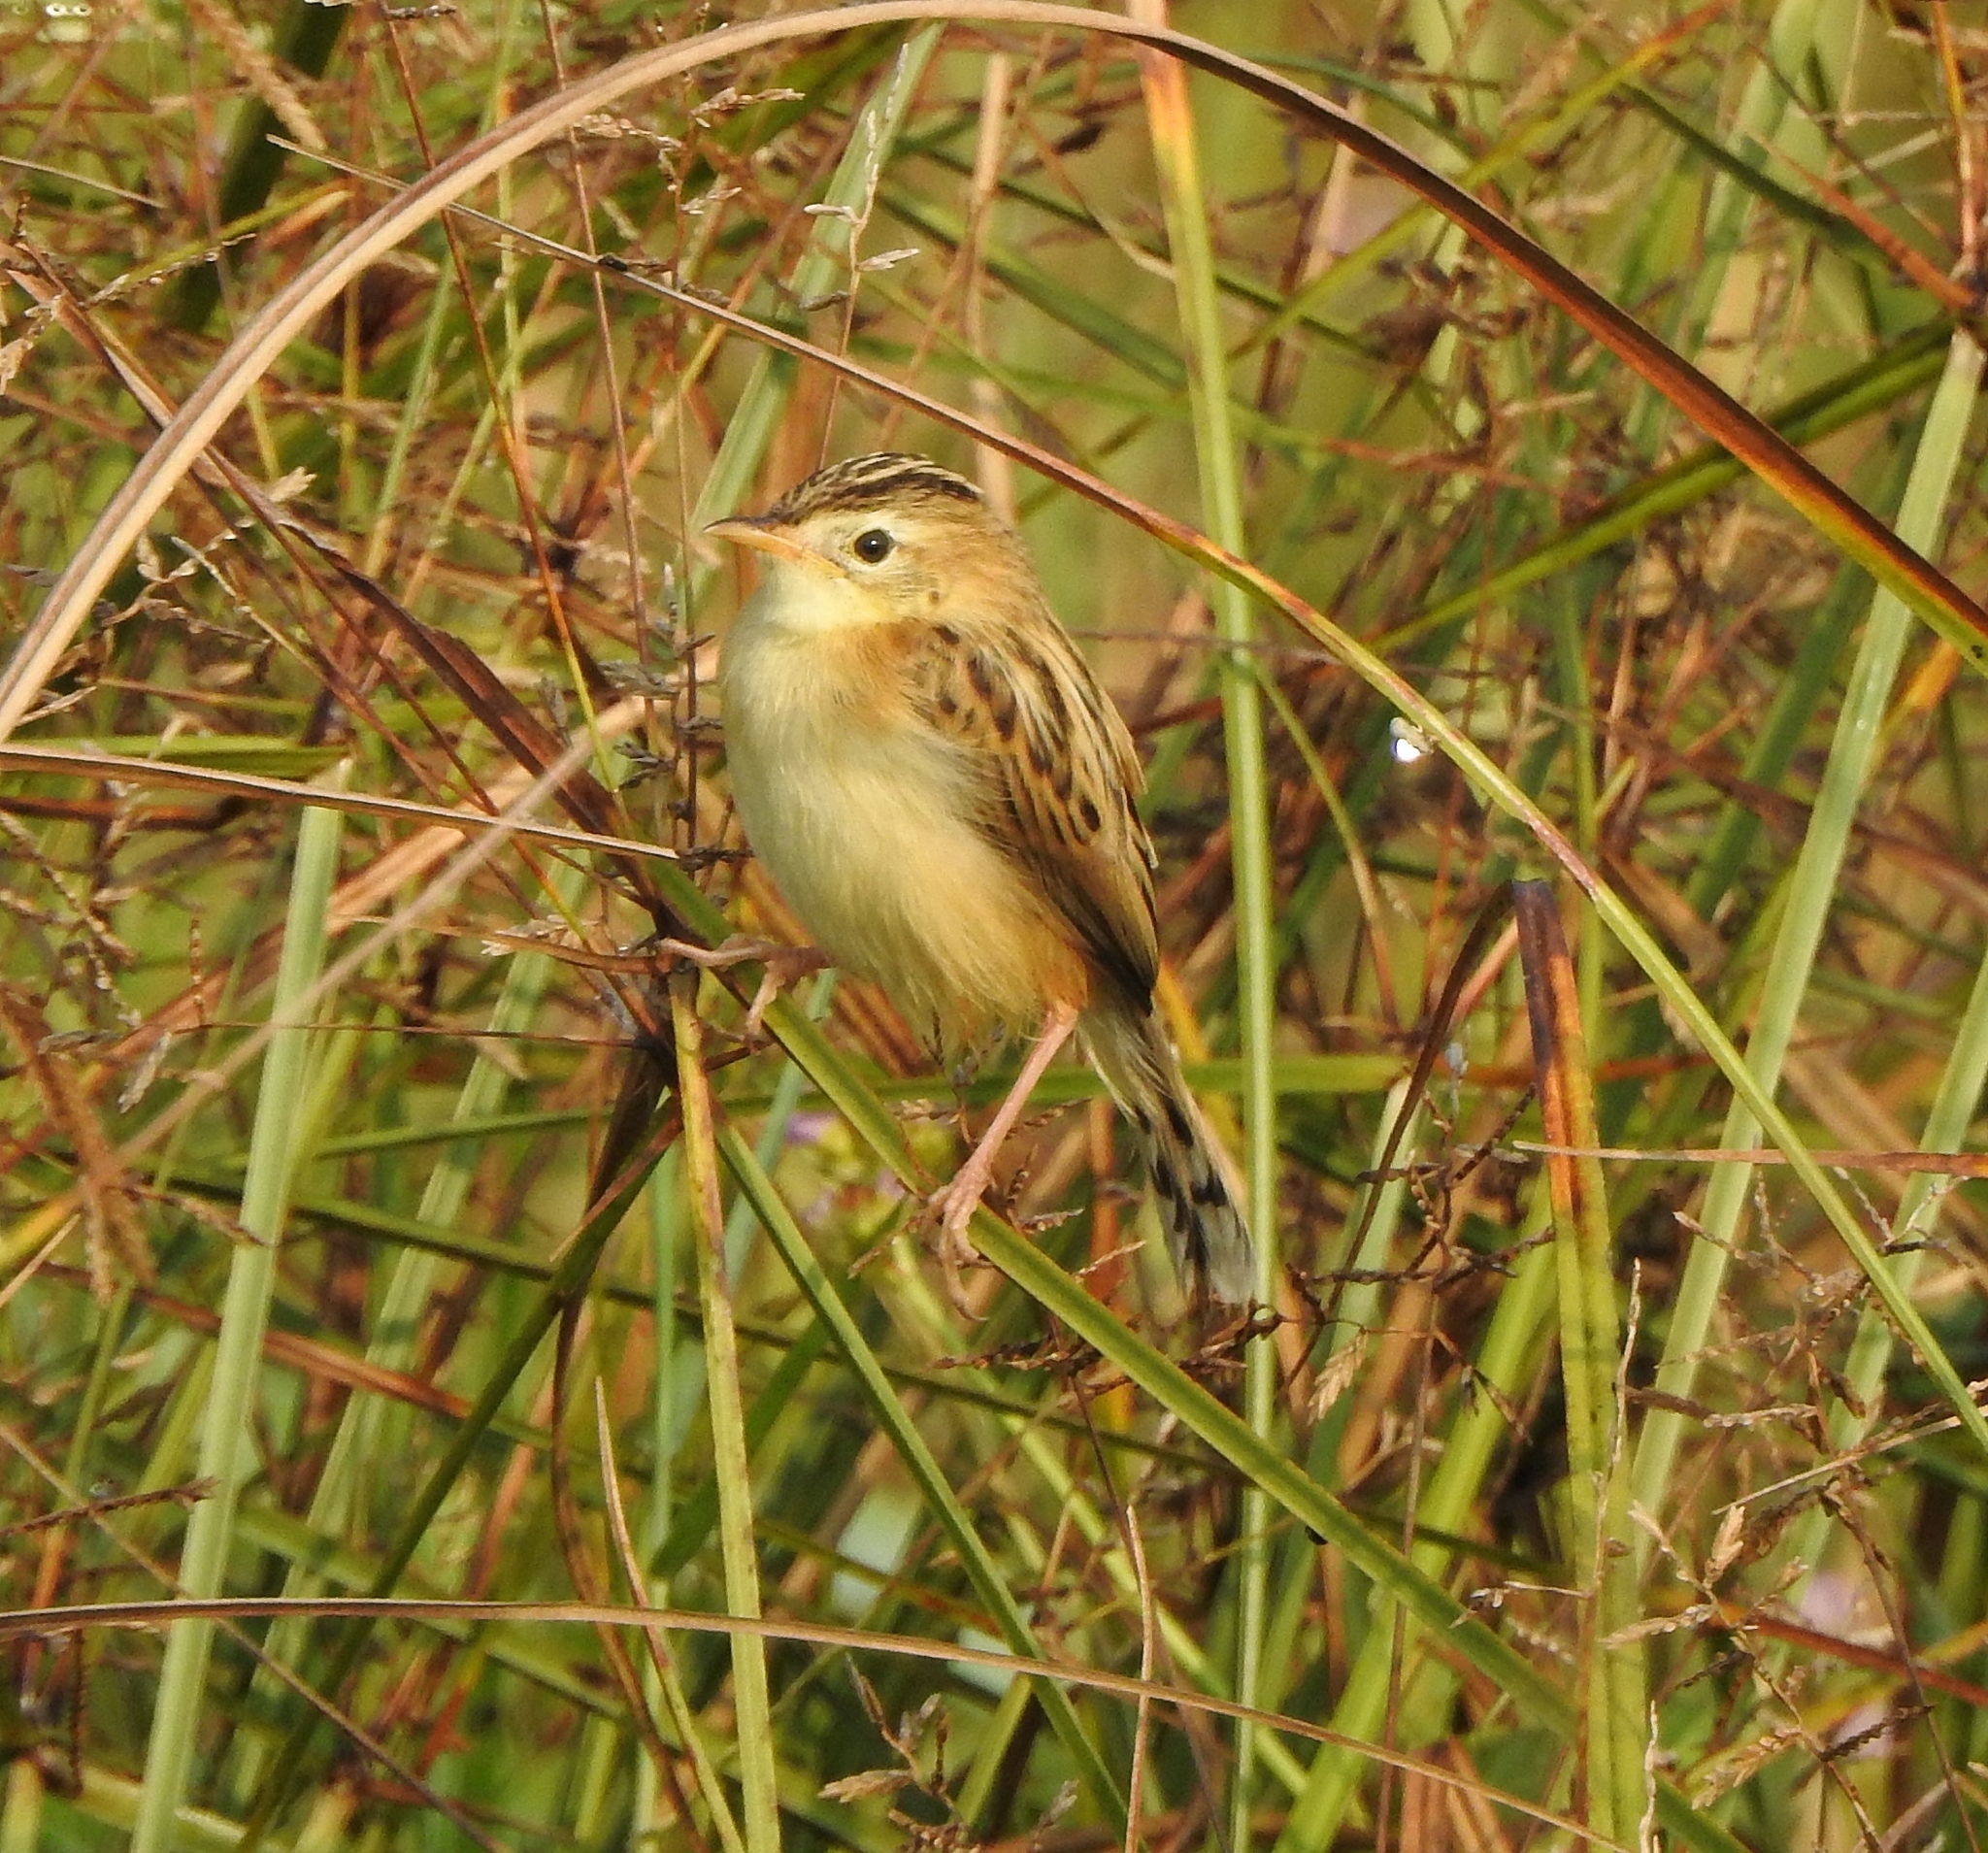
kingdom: Animalia
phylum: Chordata
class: Aves
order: Passeriformes
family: Cisticolidae
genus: Cisticola
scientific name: Cisticola juncidis
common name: Zitting cisticola
